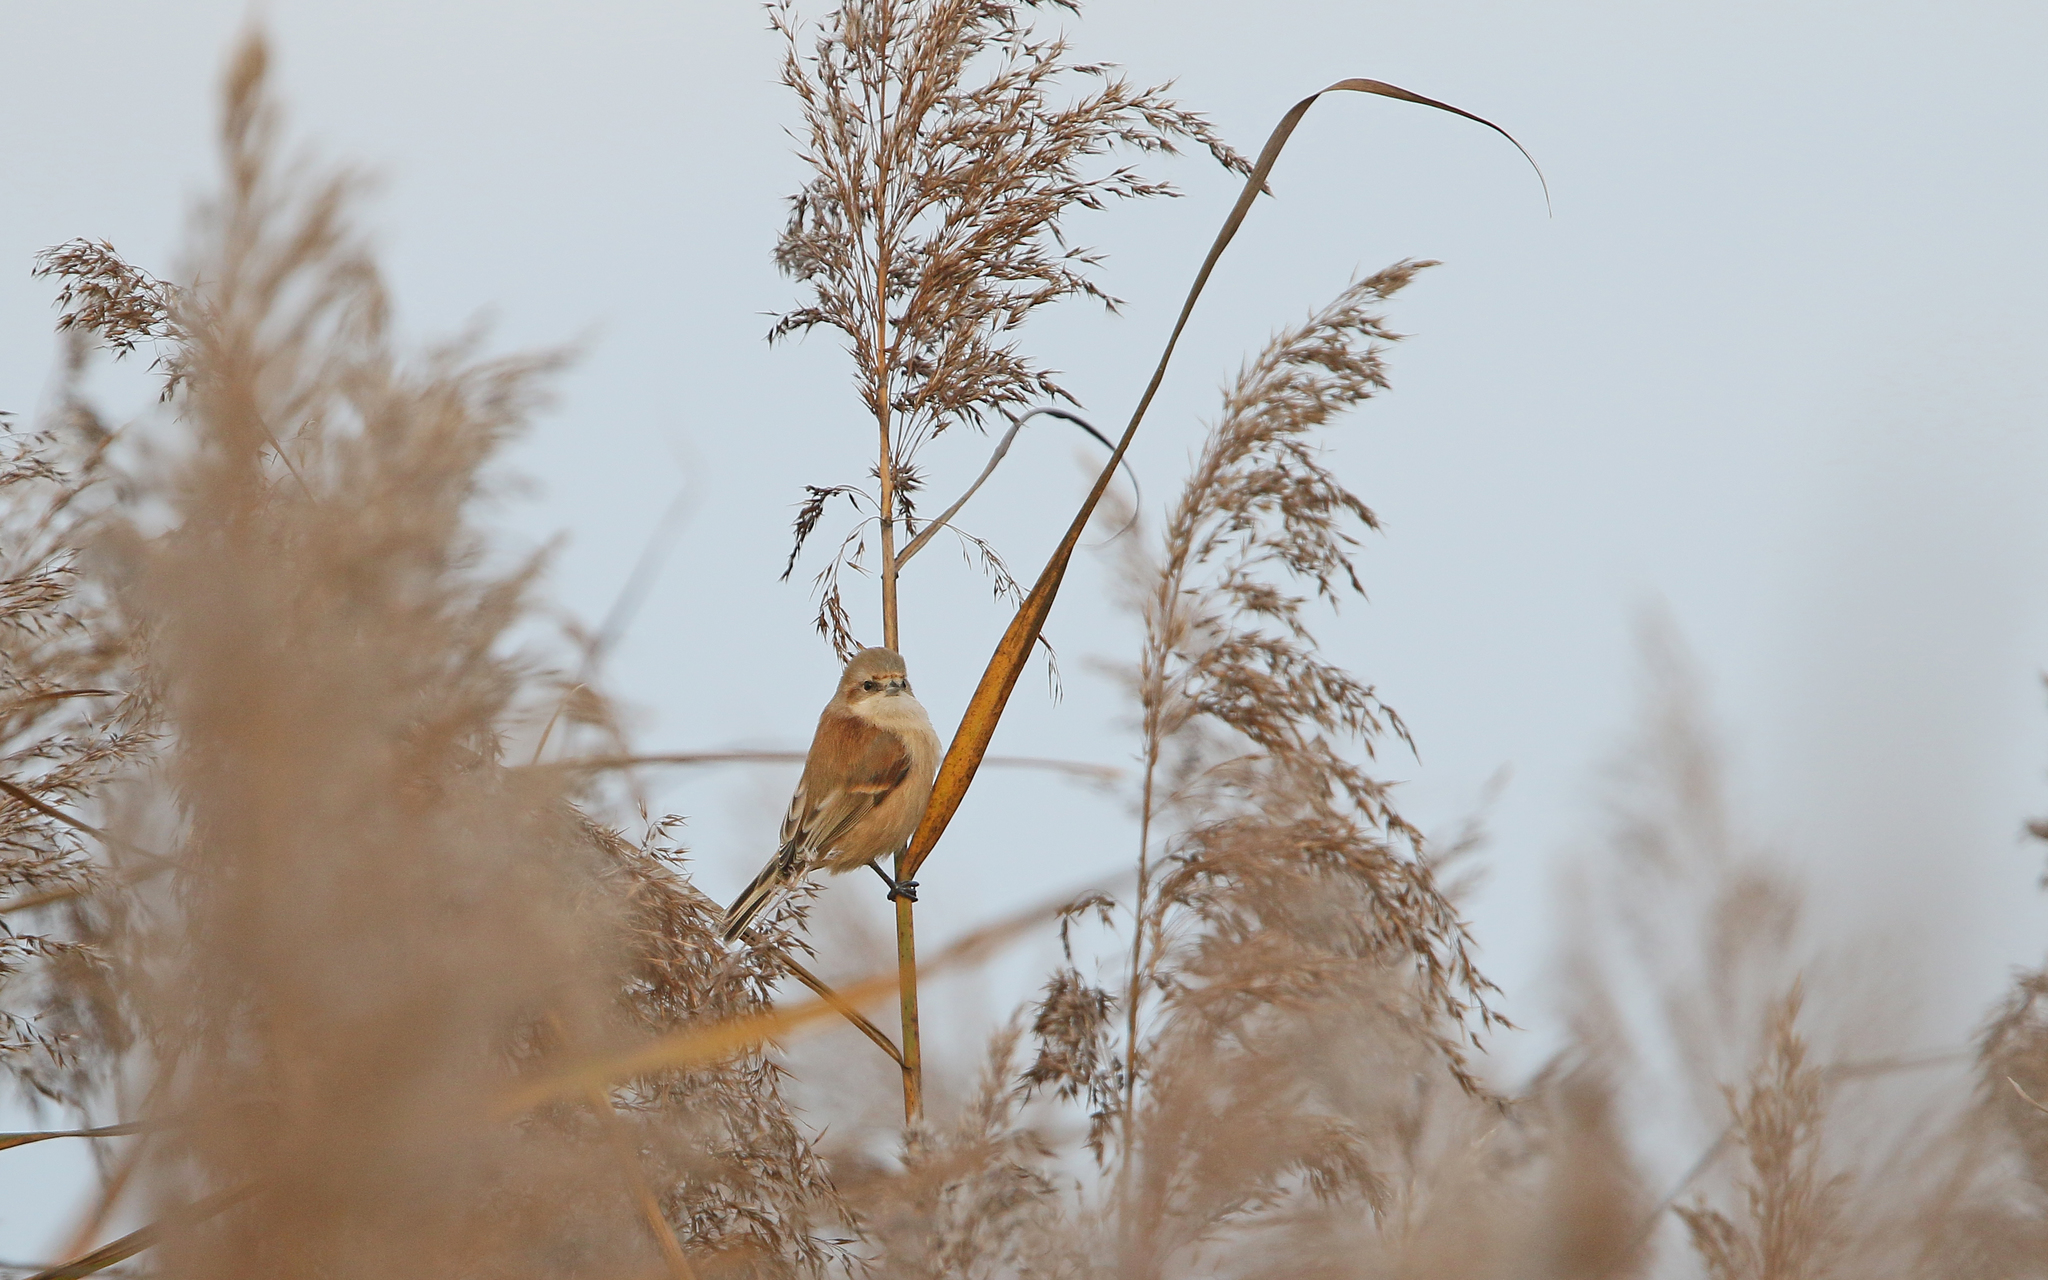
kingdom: Animalia
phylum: Chordata
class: Aves
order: Passeriformes
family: Remizidae
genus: Remiz
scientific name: Remiz pendulinus
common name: Eurasian penduline tit
